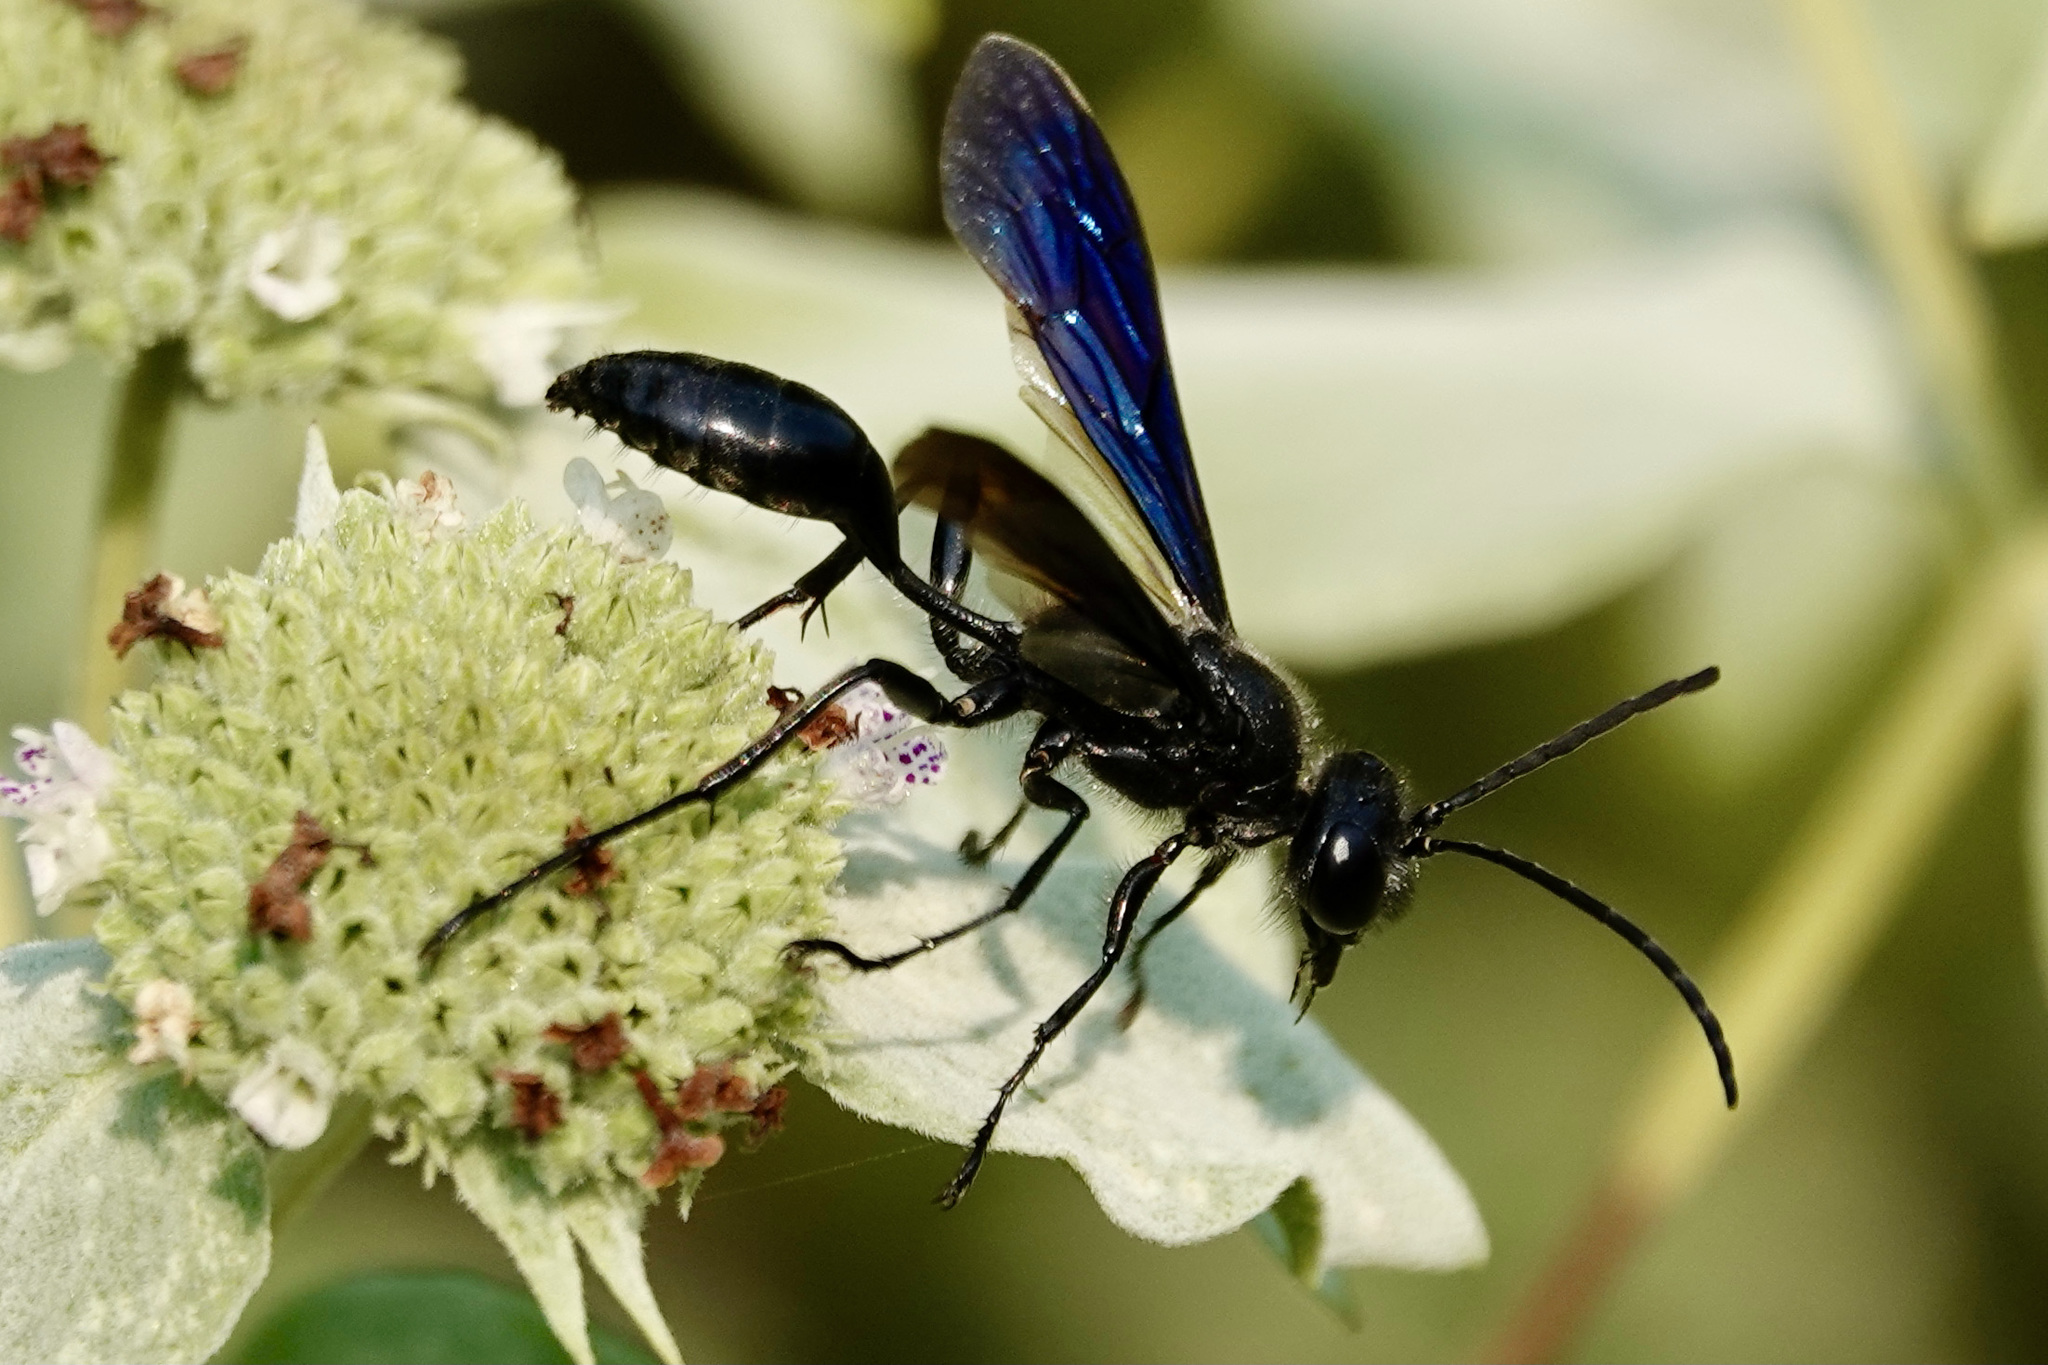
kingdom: Animalia
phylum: Arthropoda
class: Insecta
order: Hymenoptera
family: Sphecidae
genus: Isodontia
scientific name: Isodontia philadelphica
